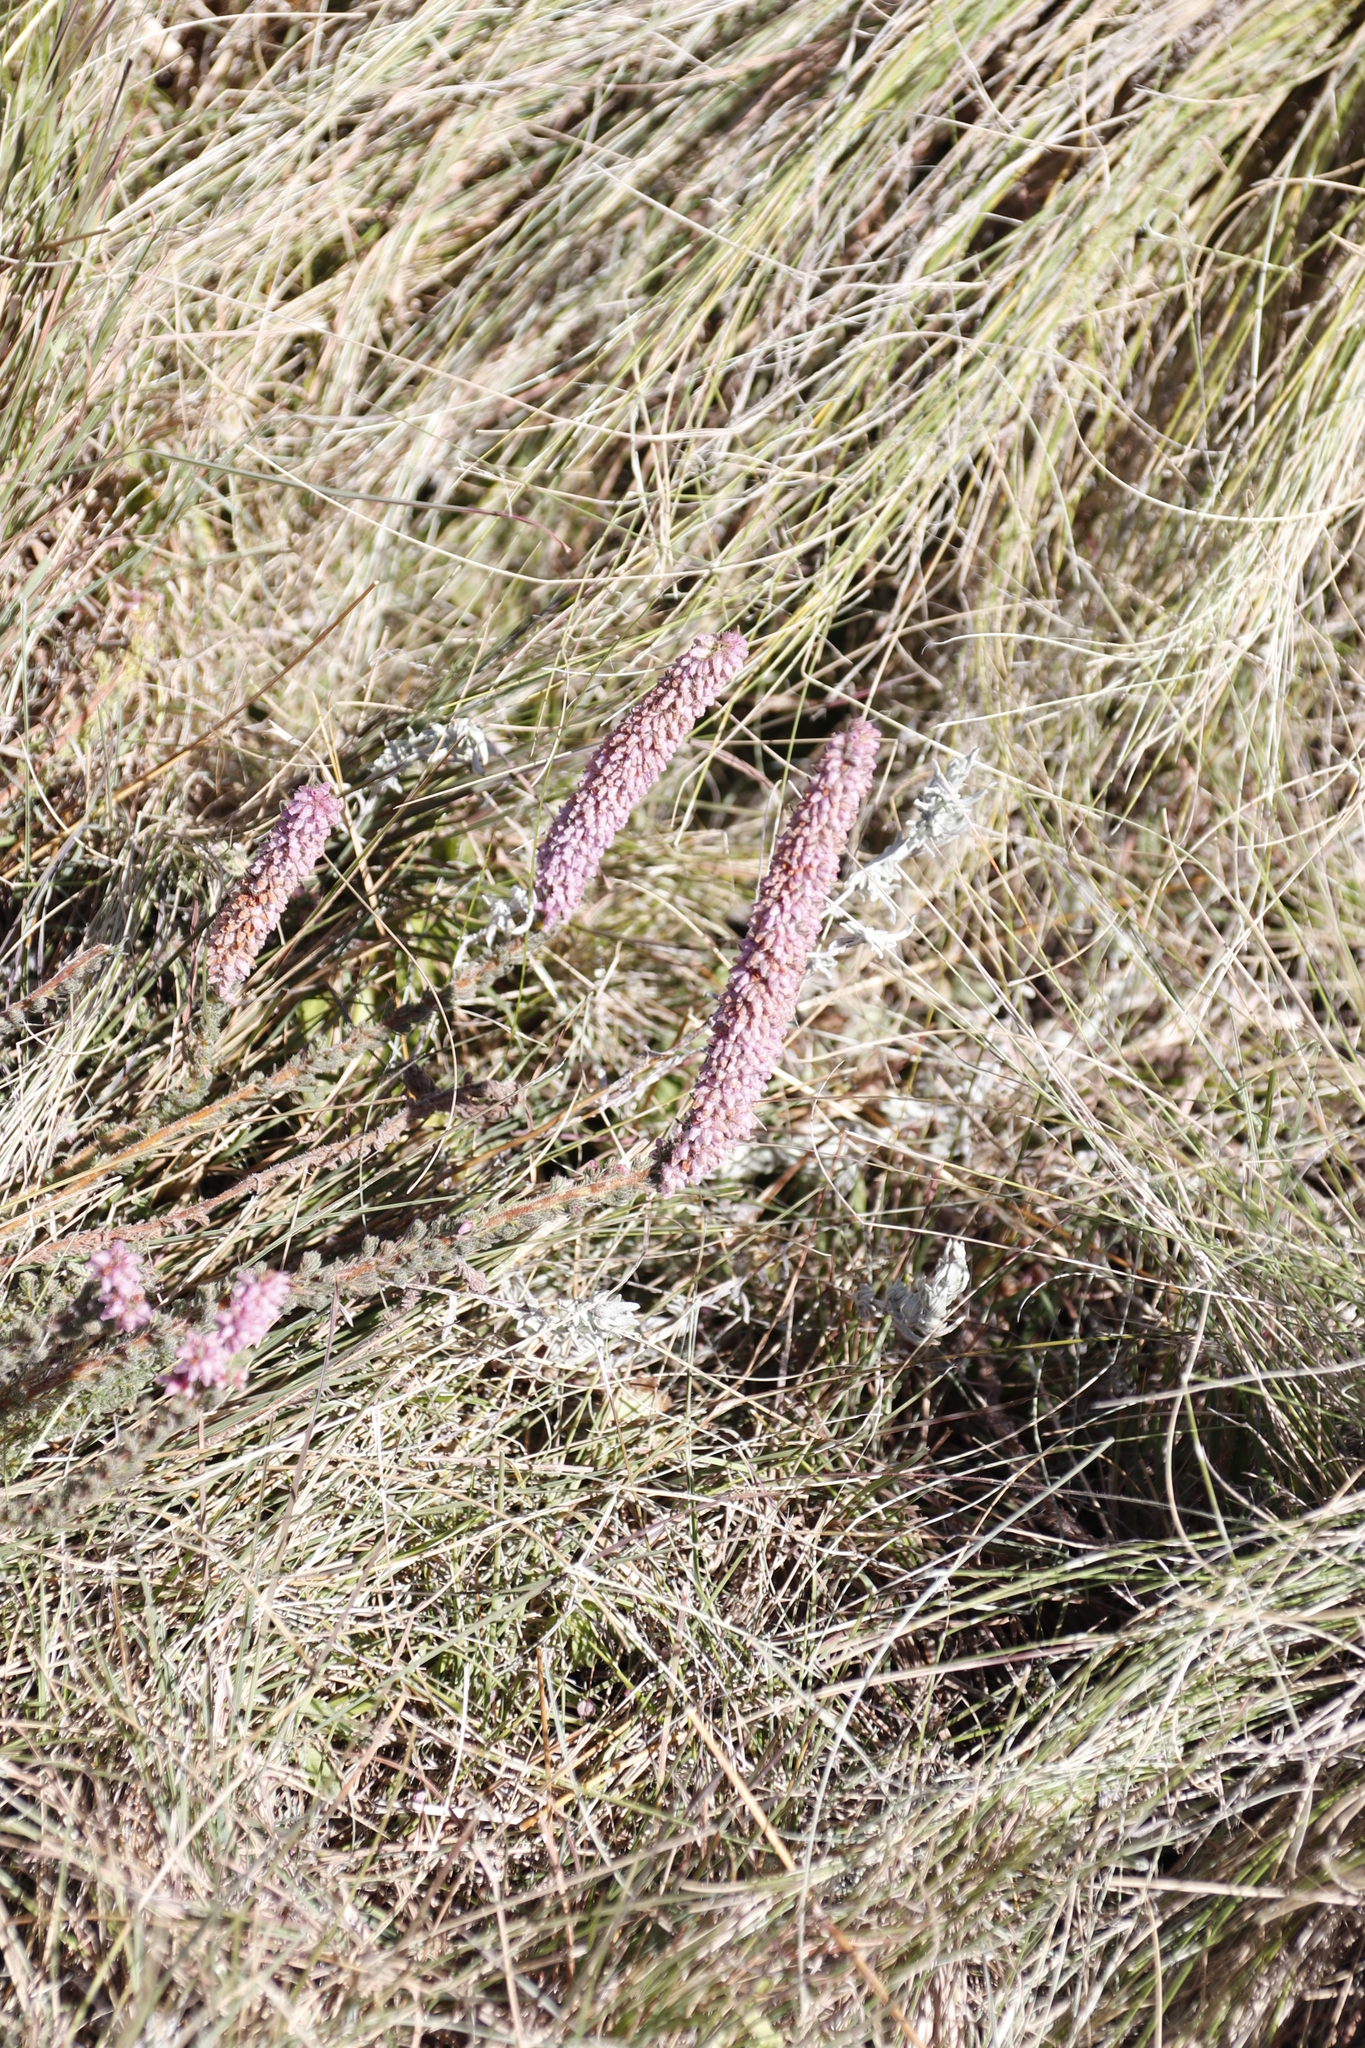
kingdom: Plantae
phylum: Tracheophyta
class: Magnoliopsida
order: Ericales
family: Ericaceae
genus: Erica
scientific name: Erica alopecurus
